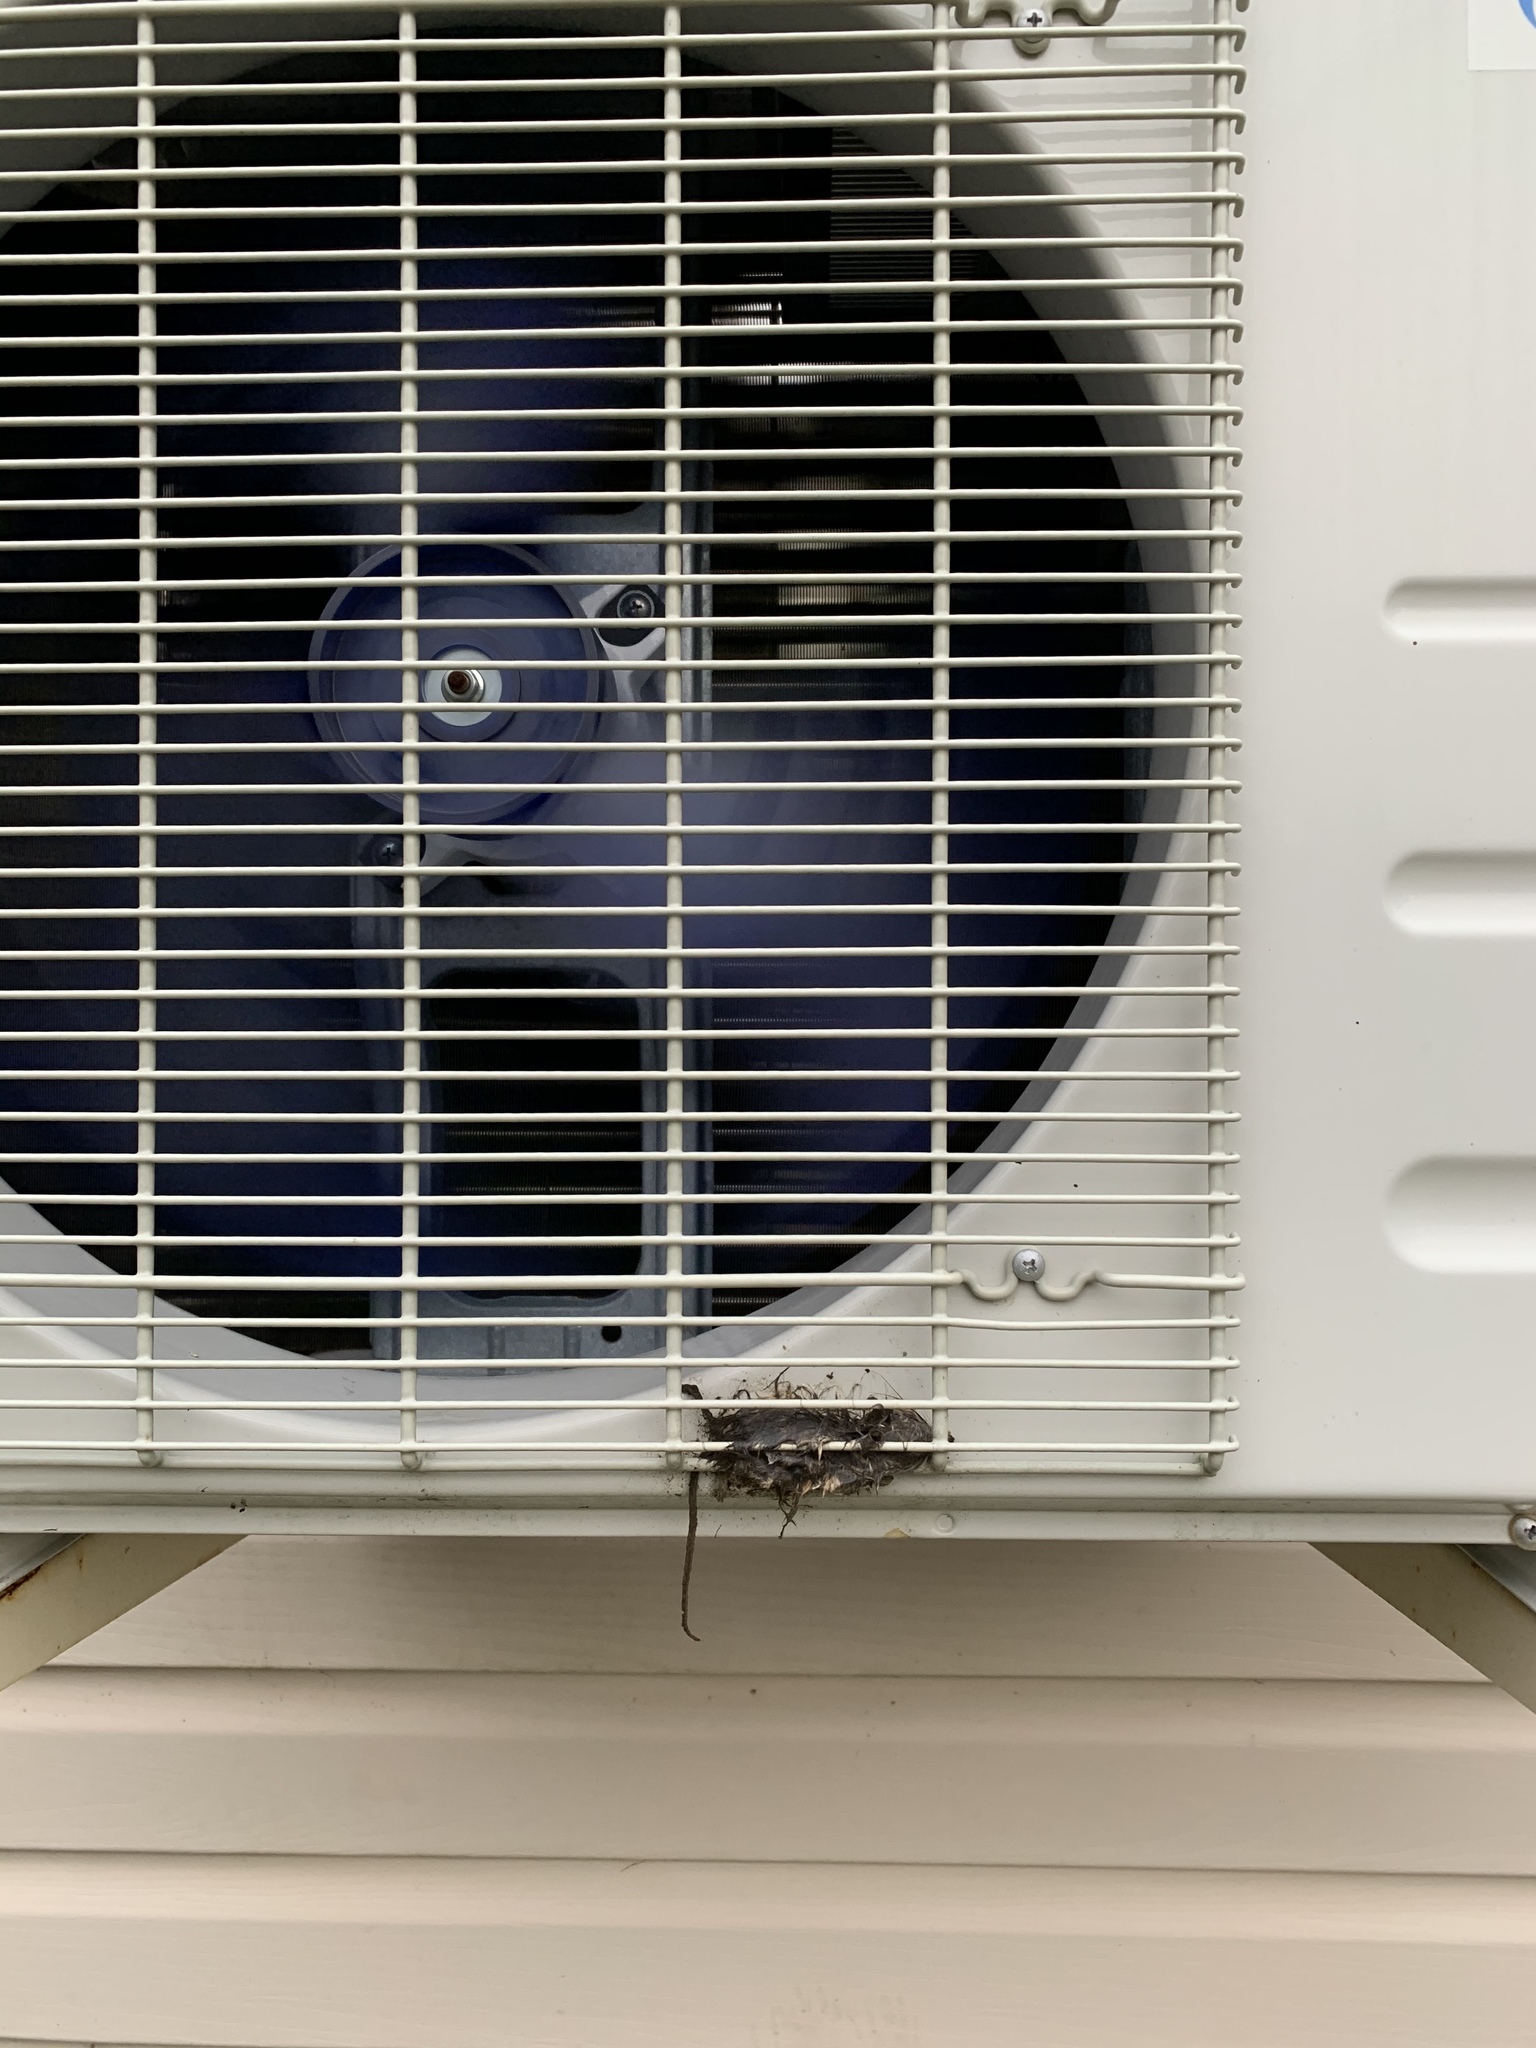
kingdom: Animalia
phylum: Chordata
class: Mammalia
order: Rodentia
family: Cricetidae
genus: Peromyscus
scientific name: Peromyscus maniculatus
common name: Deer mouse
